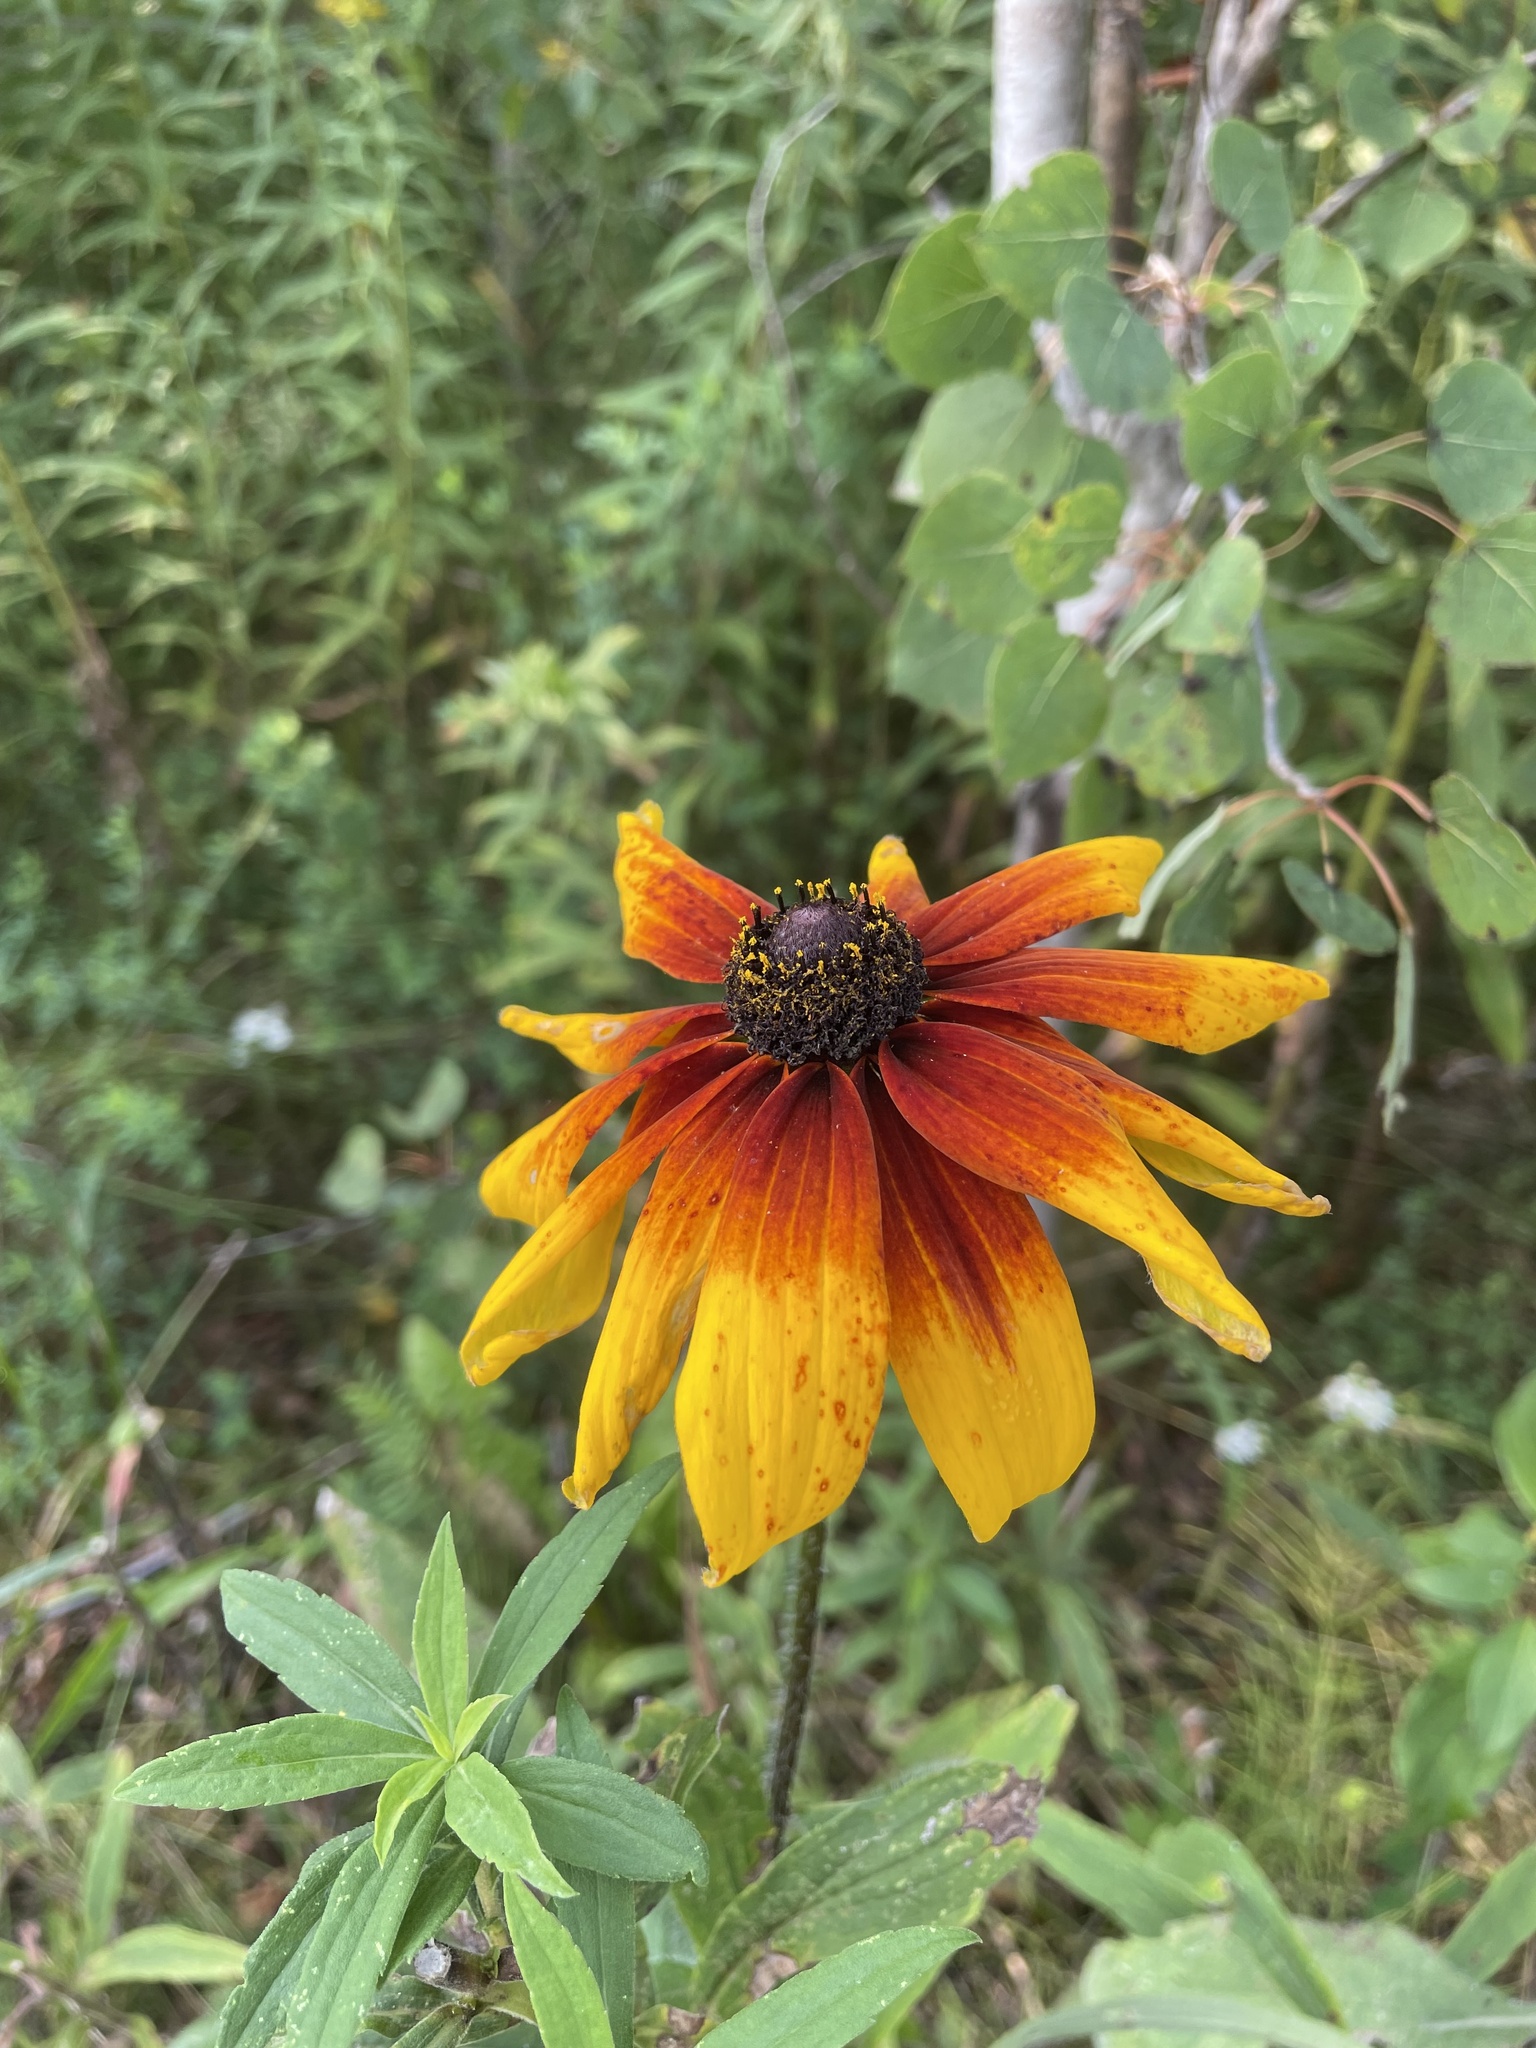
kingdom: Plantae
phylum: Tracheophyta
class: Magnoliopsida
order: Asterales
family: Asteraceae
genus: Rudbeckia
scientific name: Rudbeckia hirta
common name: Black-eyed-susan
